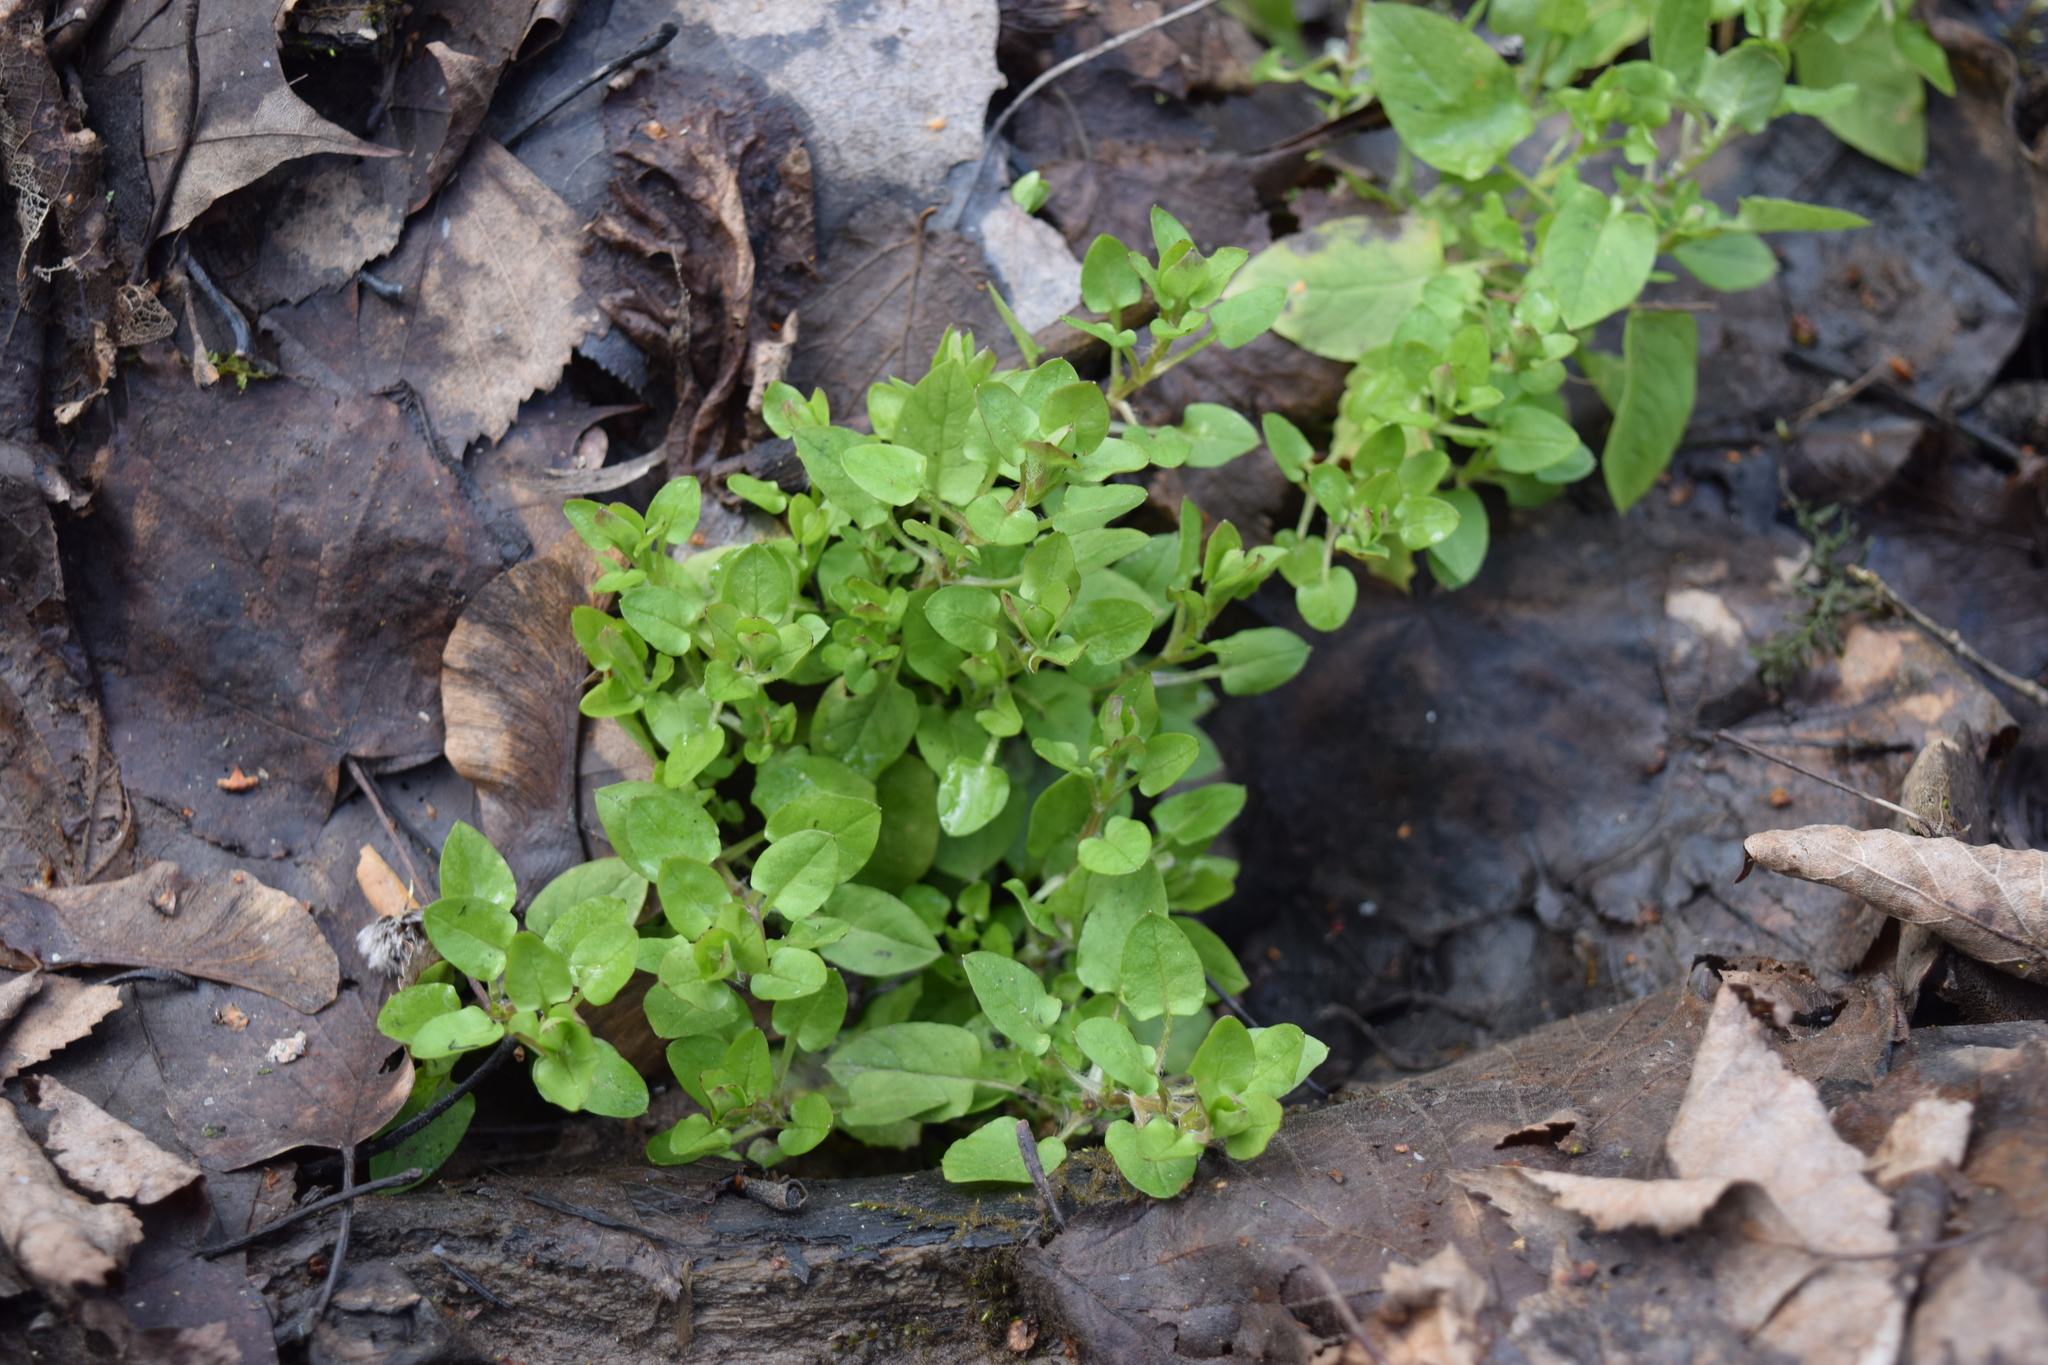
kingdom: Plantae
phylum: Tracheophyta
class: Magnoliopsida
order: Caryophyllales
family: Caryophyllaceae
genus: Stellaria
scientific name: Stellaria media
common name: Common chickweed
